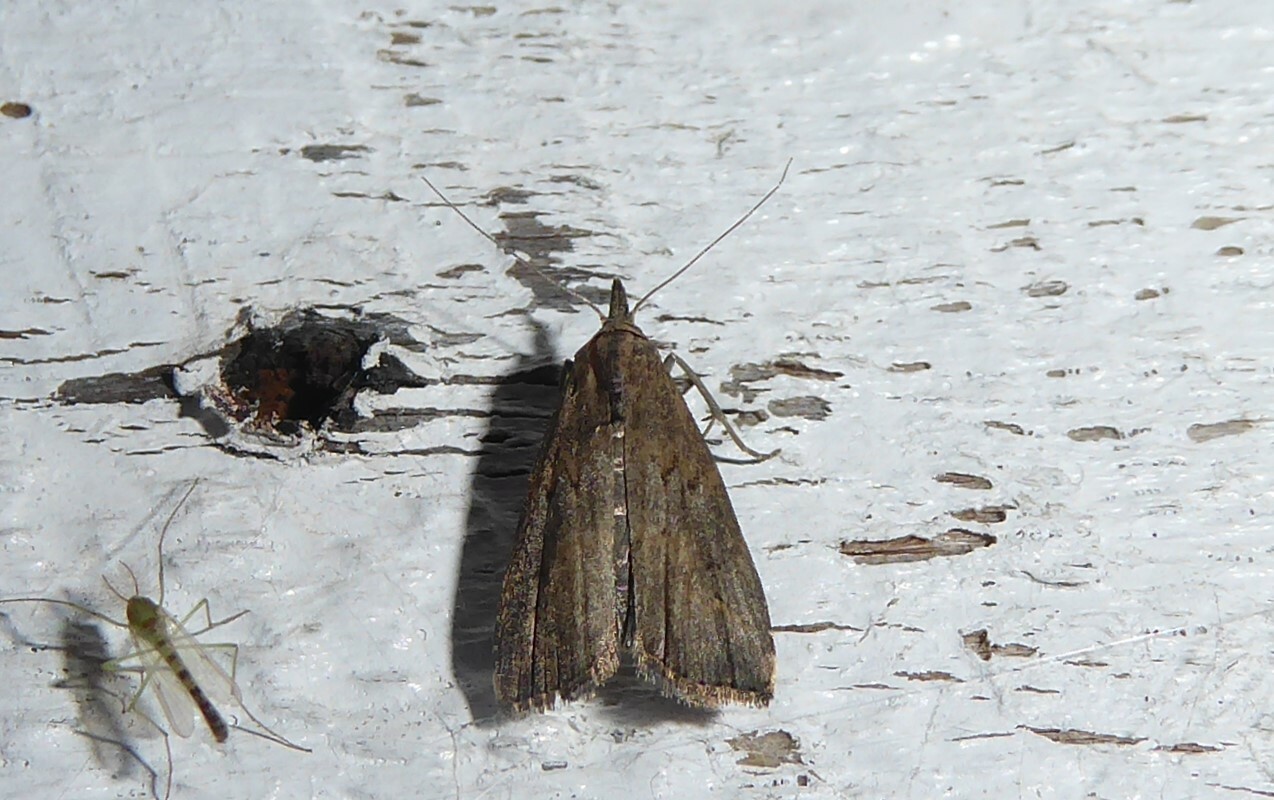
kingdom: Animalia
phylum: Arthropoda
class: Insecta
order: Lepidoptera
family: Erebidae
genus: Schrankia
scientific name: Schrankia costaestrigalis
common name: Pinion-streaked snout
